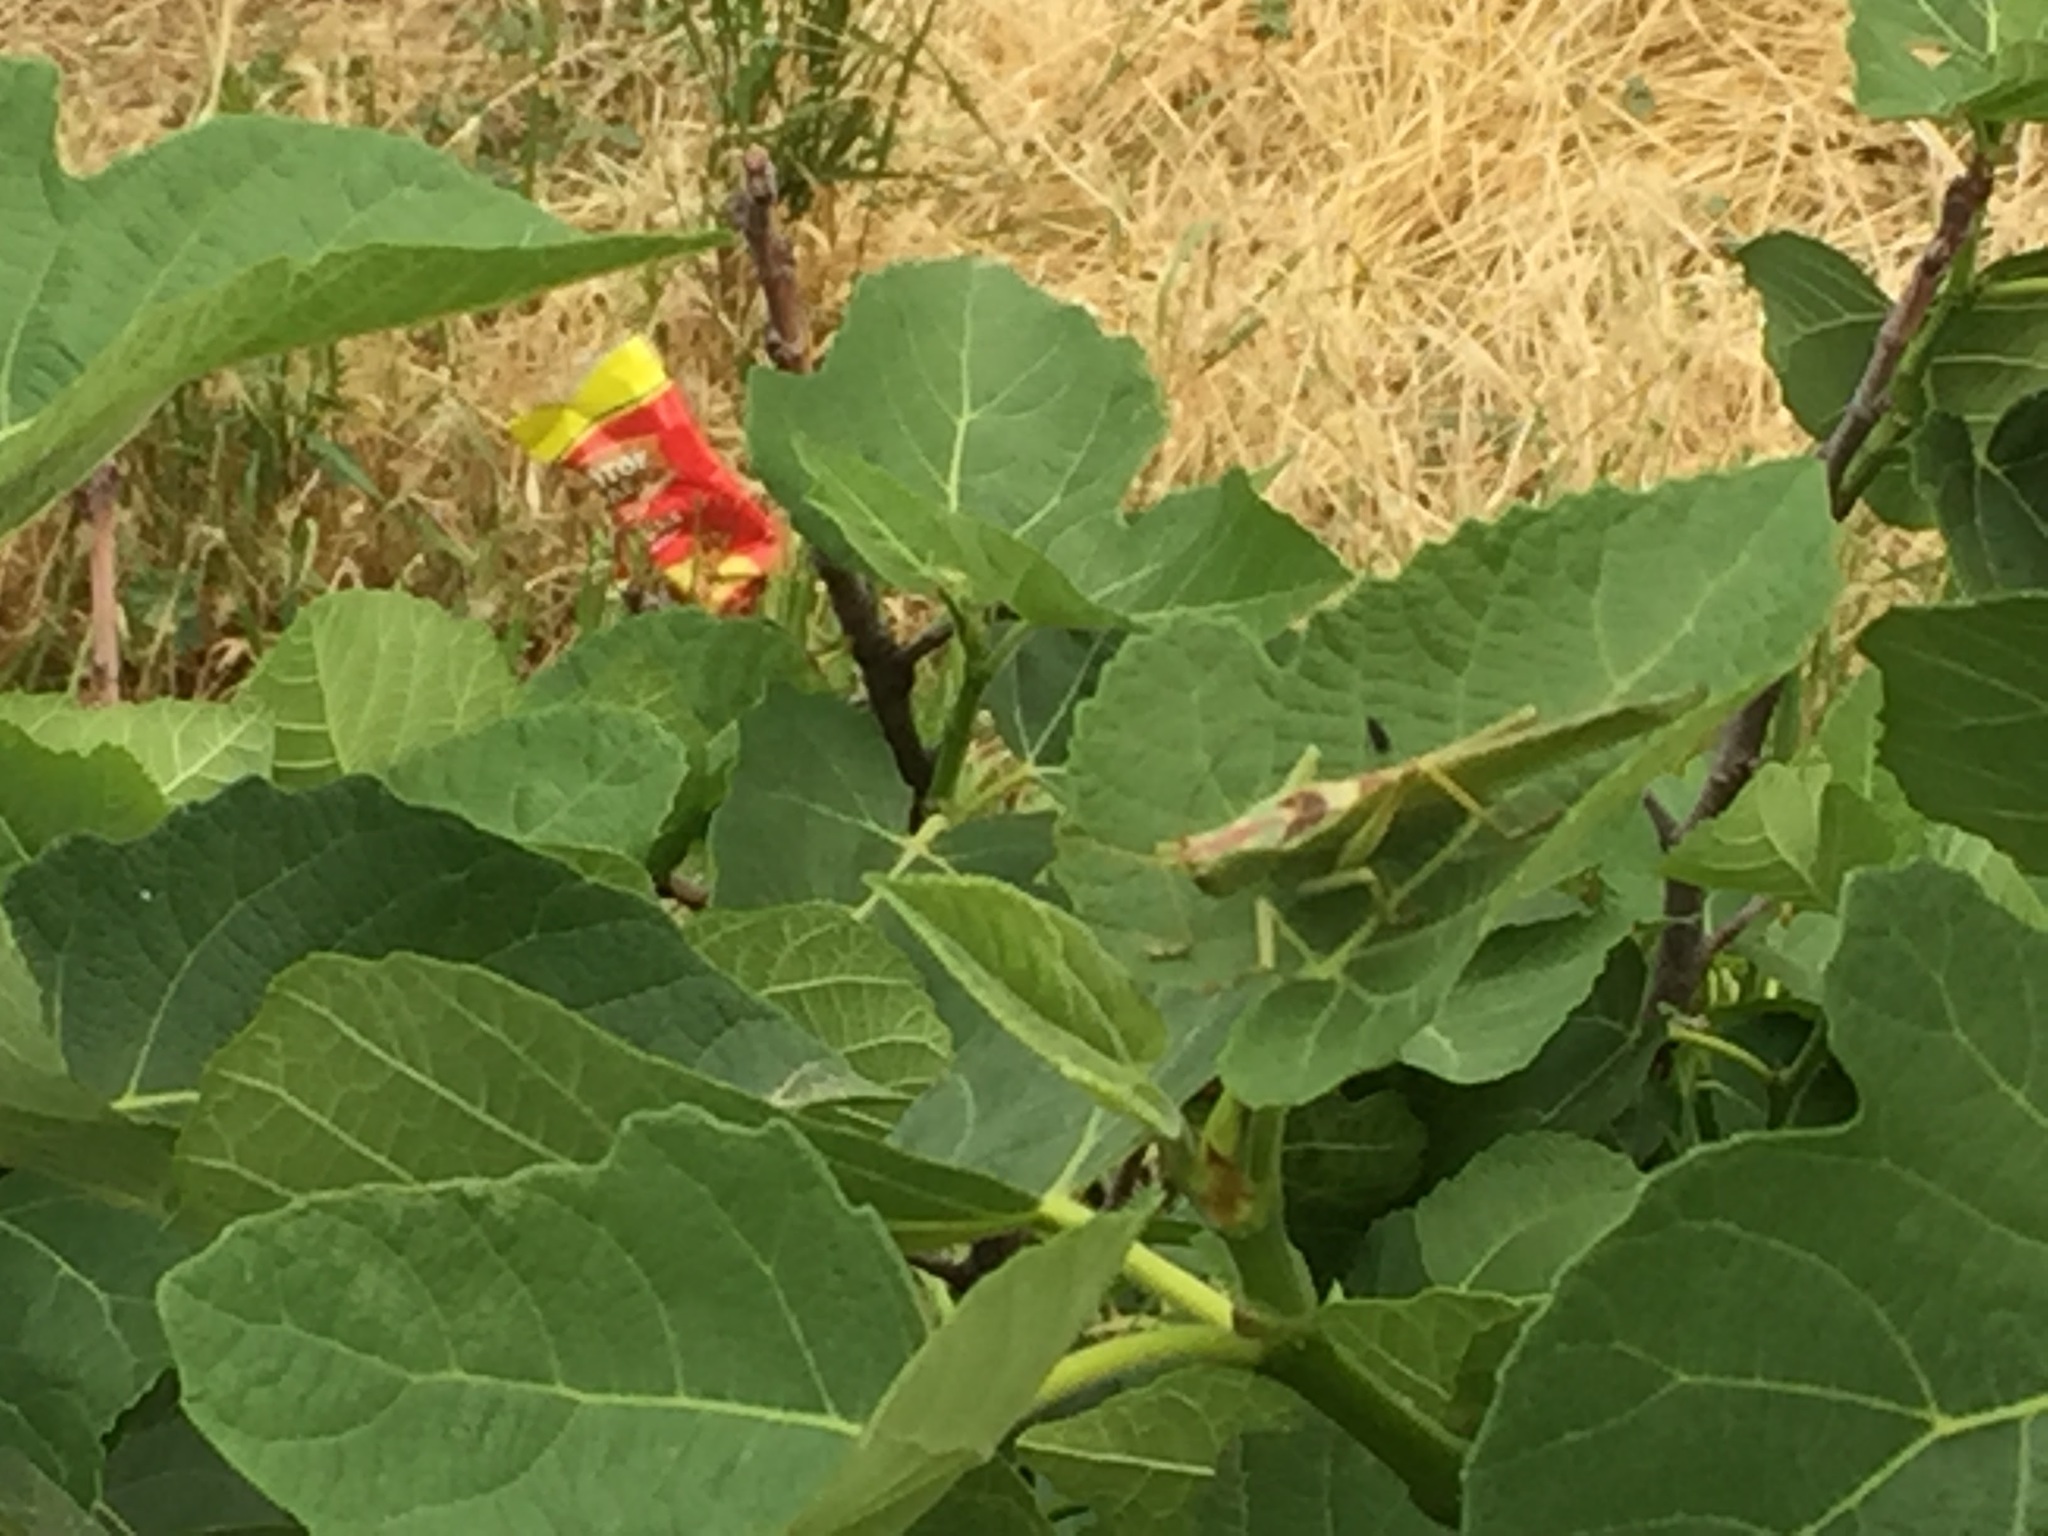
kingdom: Animalia
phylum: Arthropoda
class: Insecta
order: Orthoptera
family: Tettigoniidae
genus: Tettigonia
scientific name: Tettigonia viridissima
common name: Great green bush-cricket
